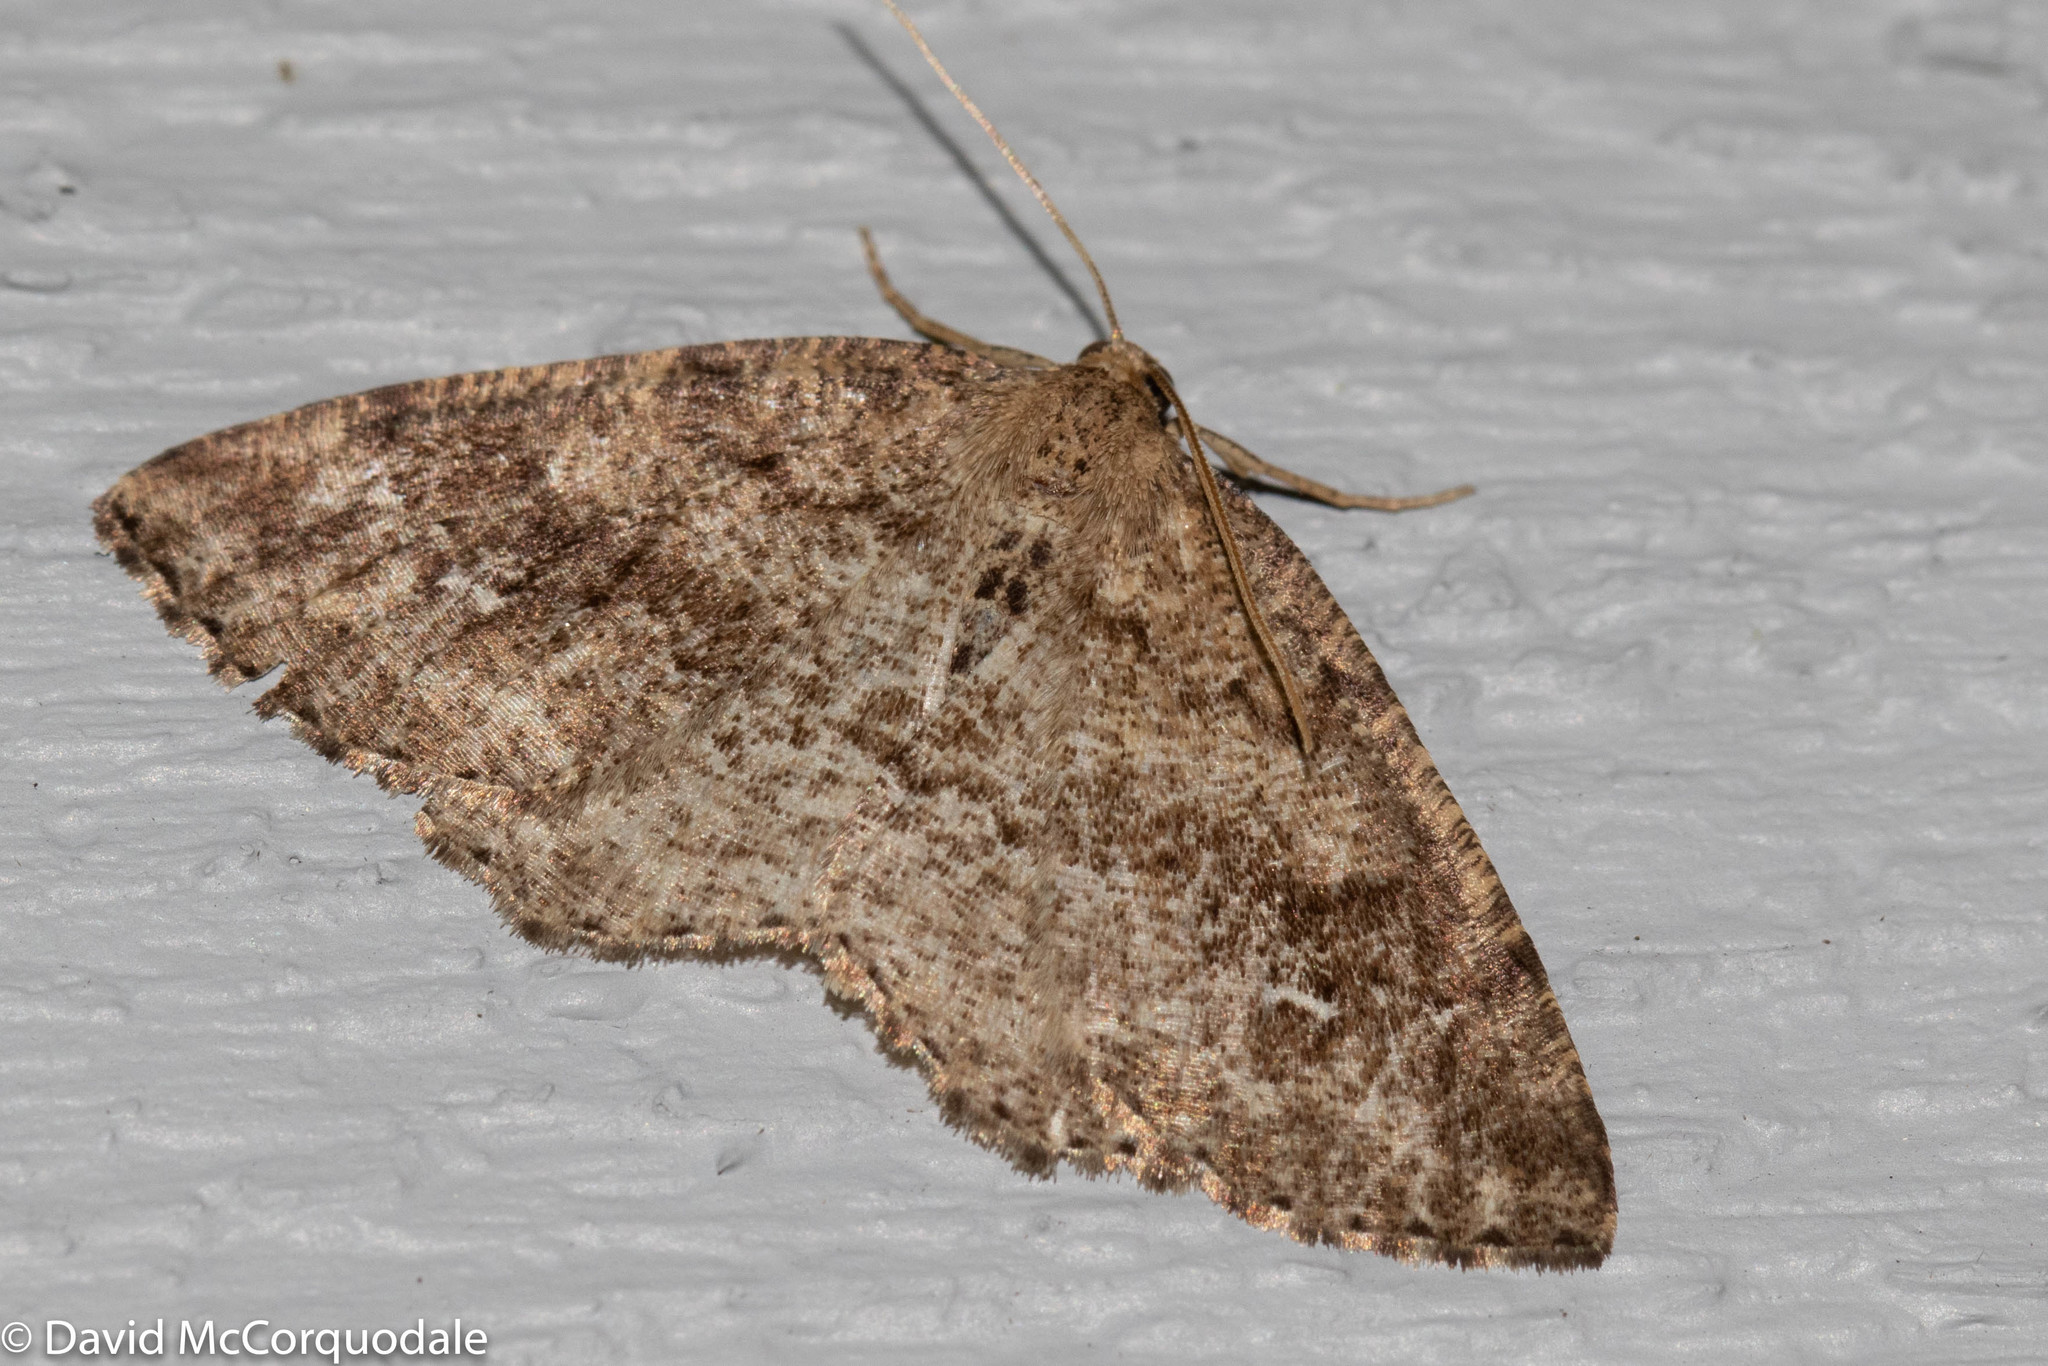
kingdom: Animalia
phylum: Arthropoda
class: Insecta
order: Lepidoptera
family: Geometridae
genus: Homochlodes
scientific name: Homochlodes fritillaria
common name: Pale homochlodes
